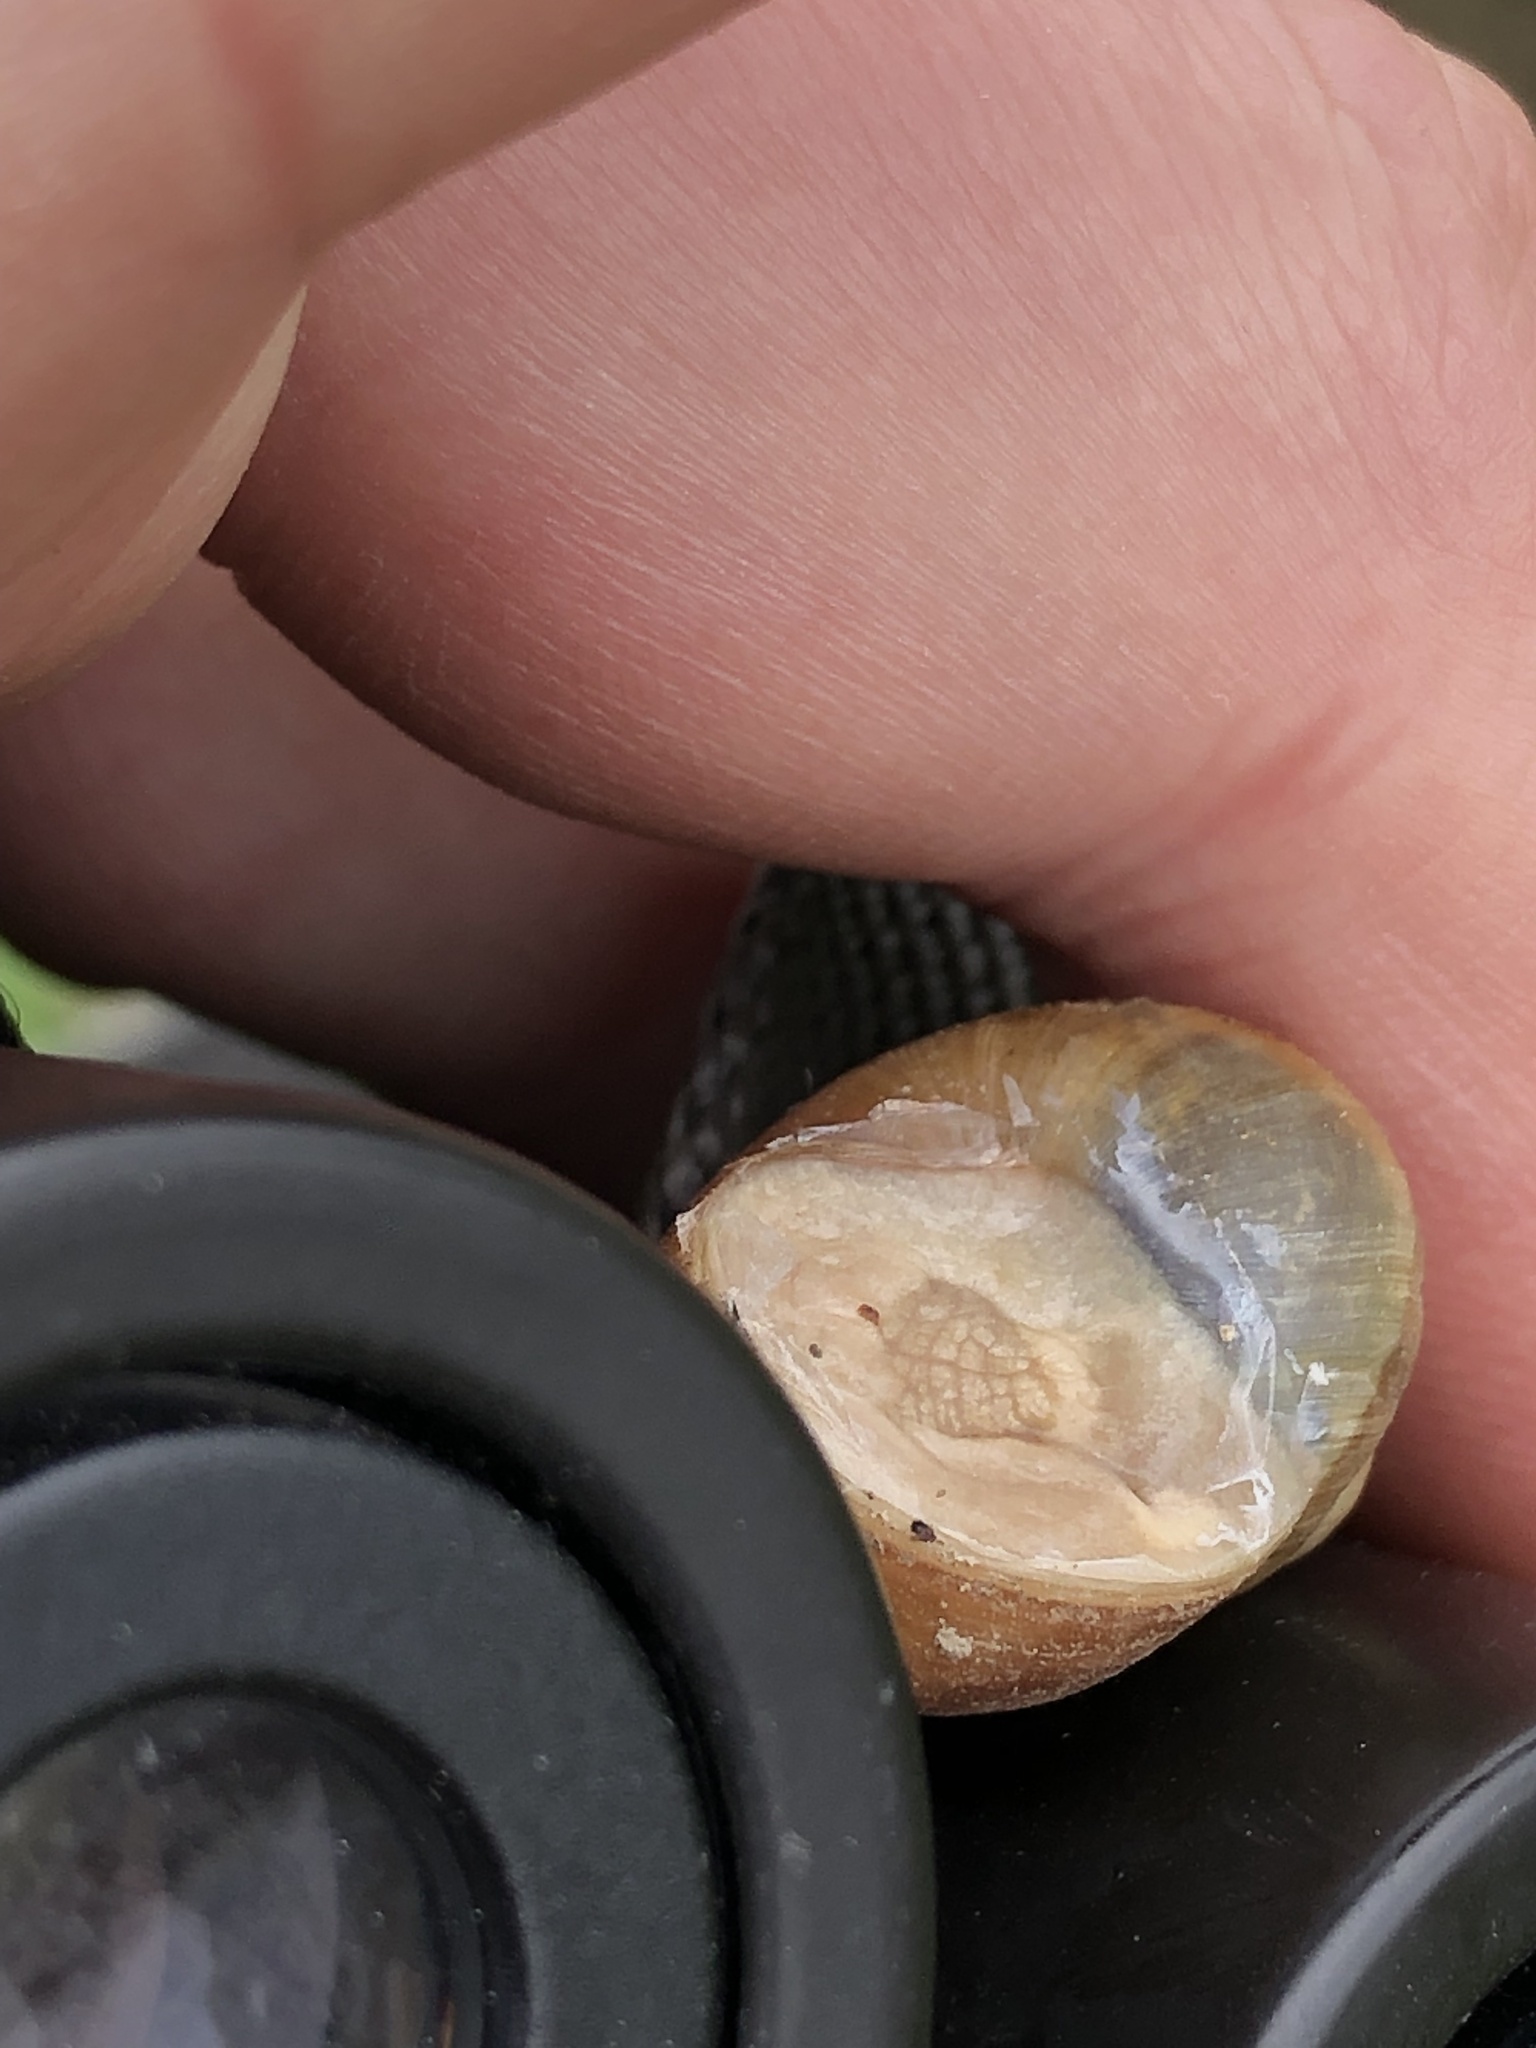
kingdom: Animalia
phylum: Mollusca
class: Gastropoda
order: Stylommatophora
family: Helicidae
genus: Helix
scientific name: Helix pomatia
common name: Roman snail
